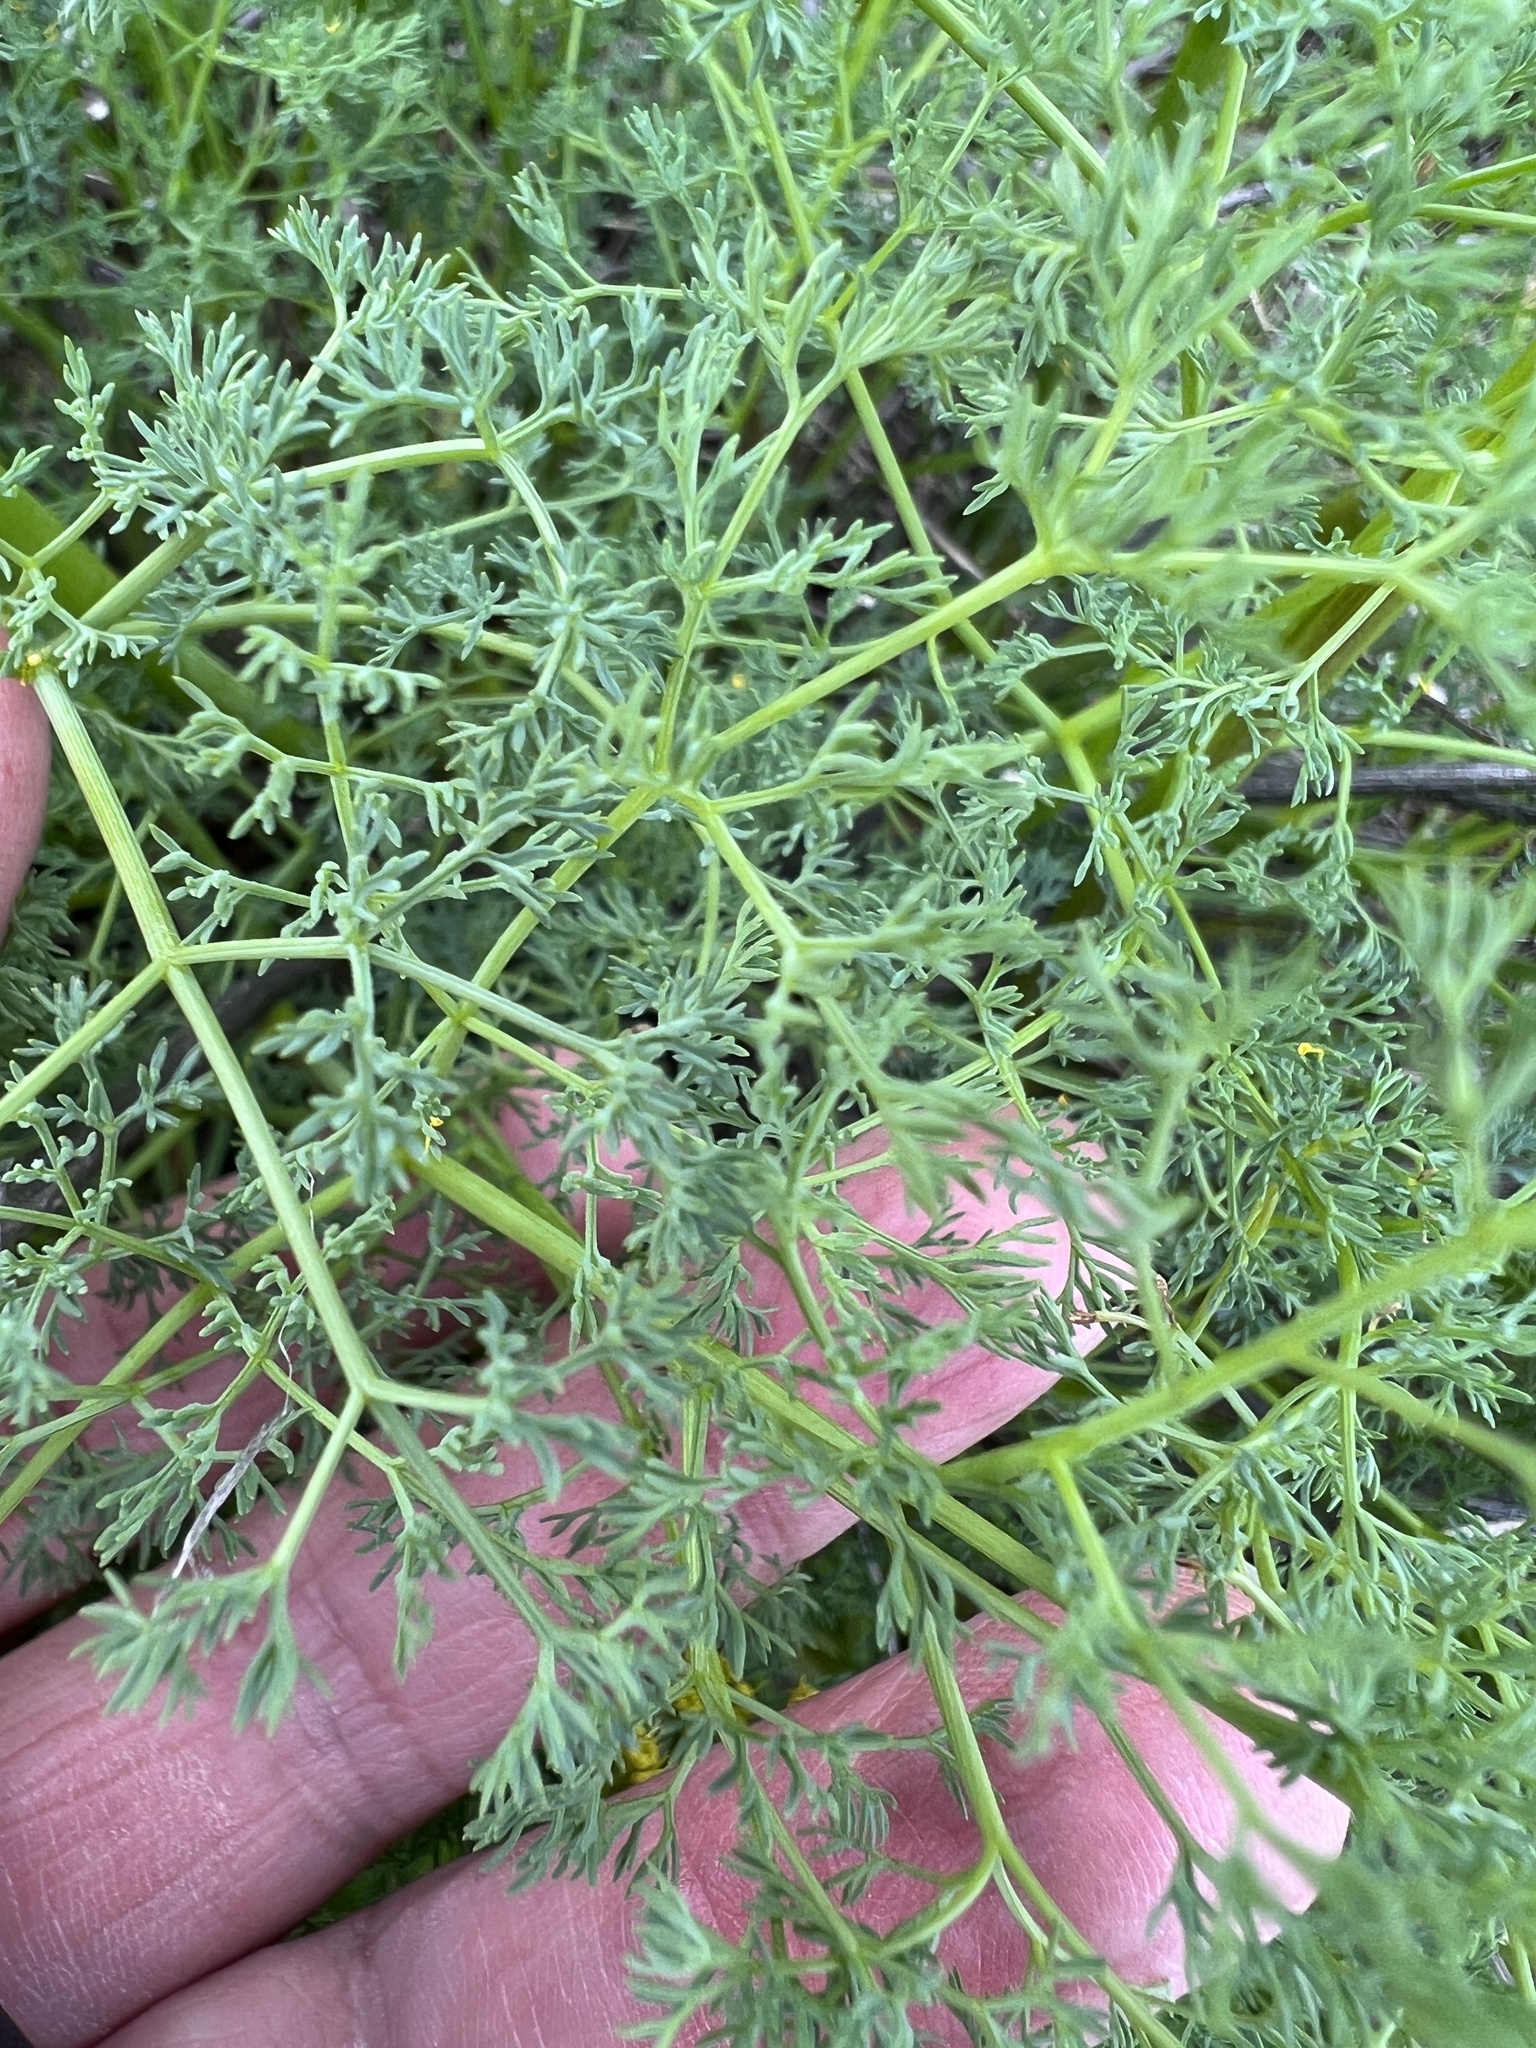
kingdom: Plantae
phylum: Tracheophyta
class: Magnoliopsida
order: Apiales
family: Apiaceae
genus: Lomatium
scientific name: Lomatium papilioniferum
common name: Butterfly lomatium
